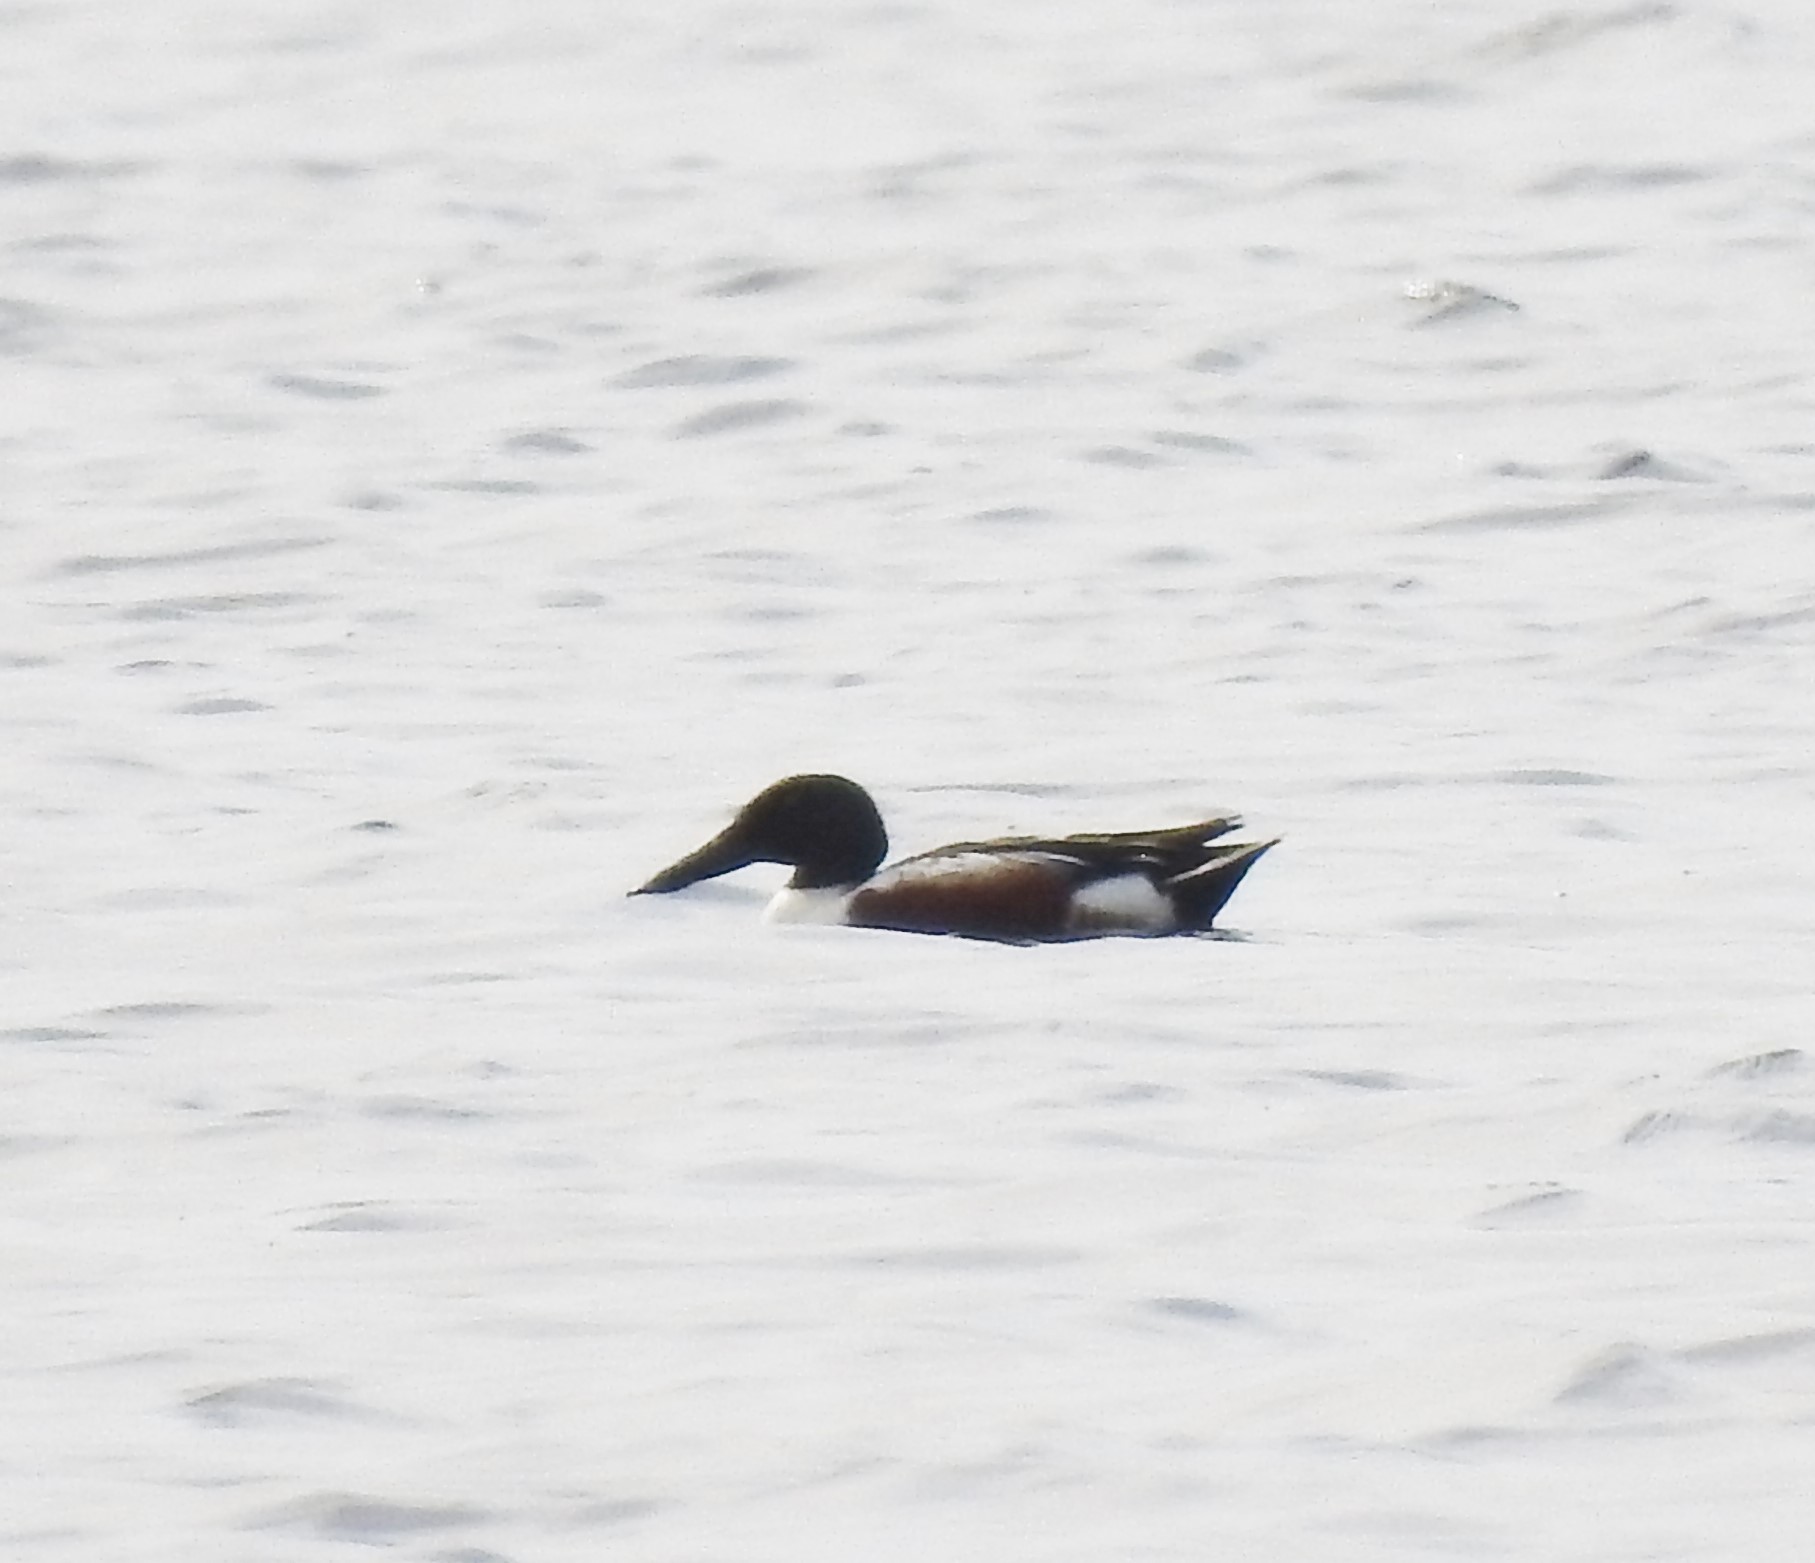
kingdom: Animalia
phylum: Chordata
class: Aves
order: Anseriformes
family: Anatidae
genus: Spatula
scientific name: Spatula clypeata
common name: Northern shoveler
